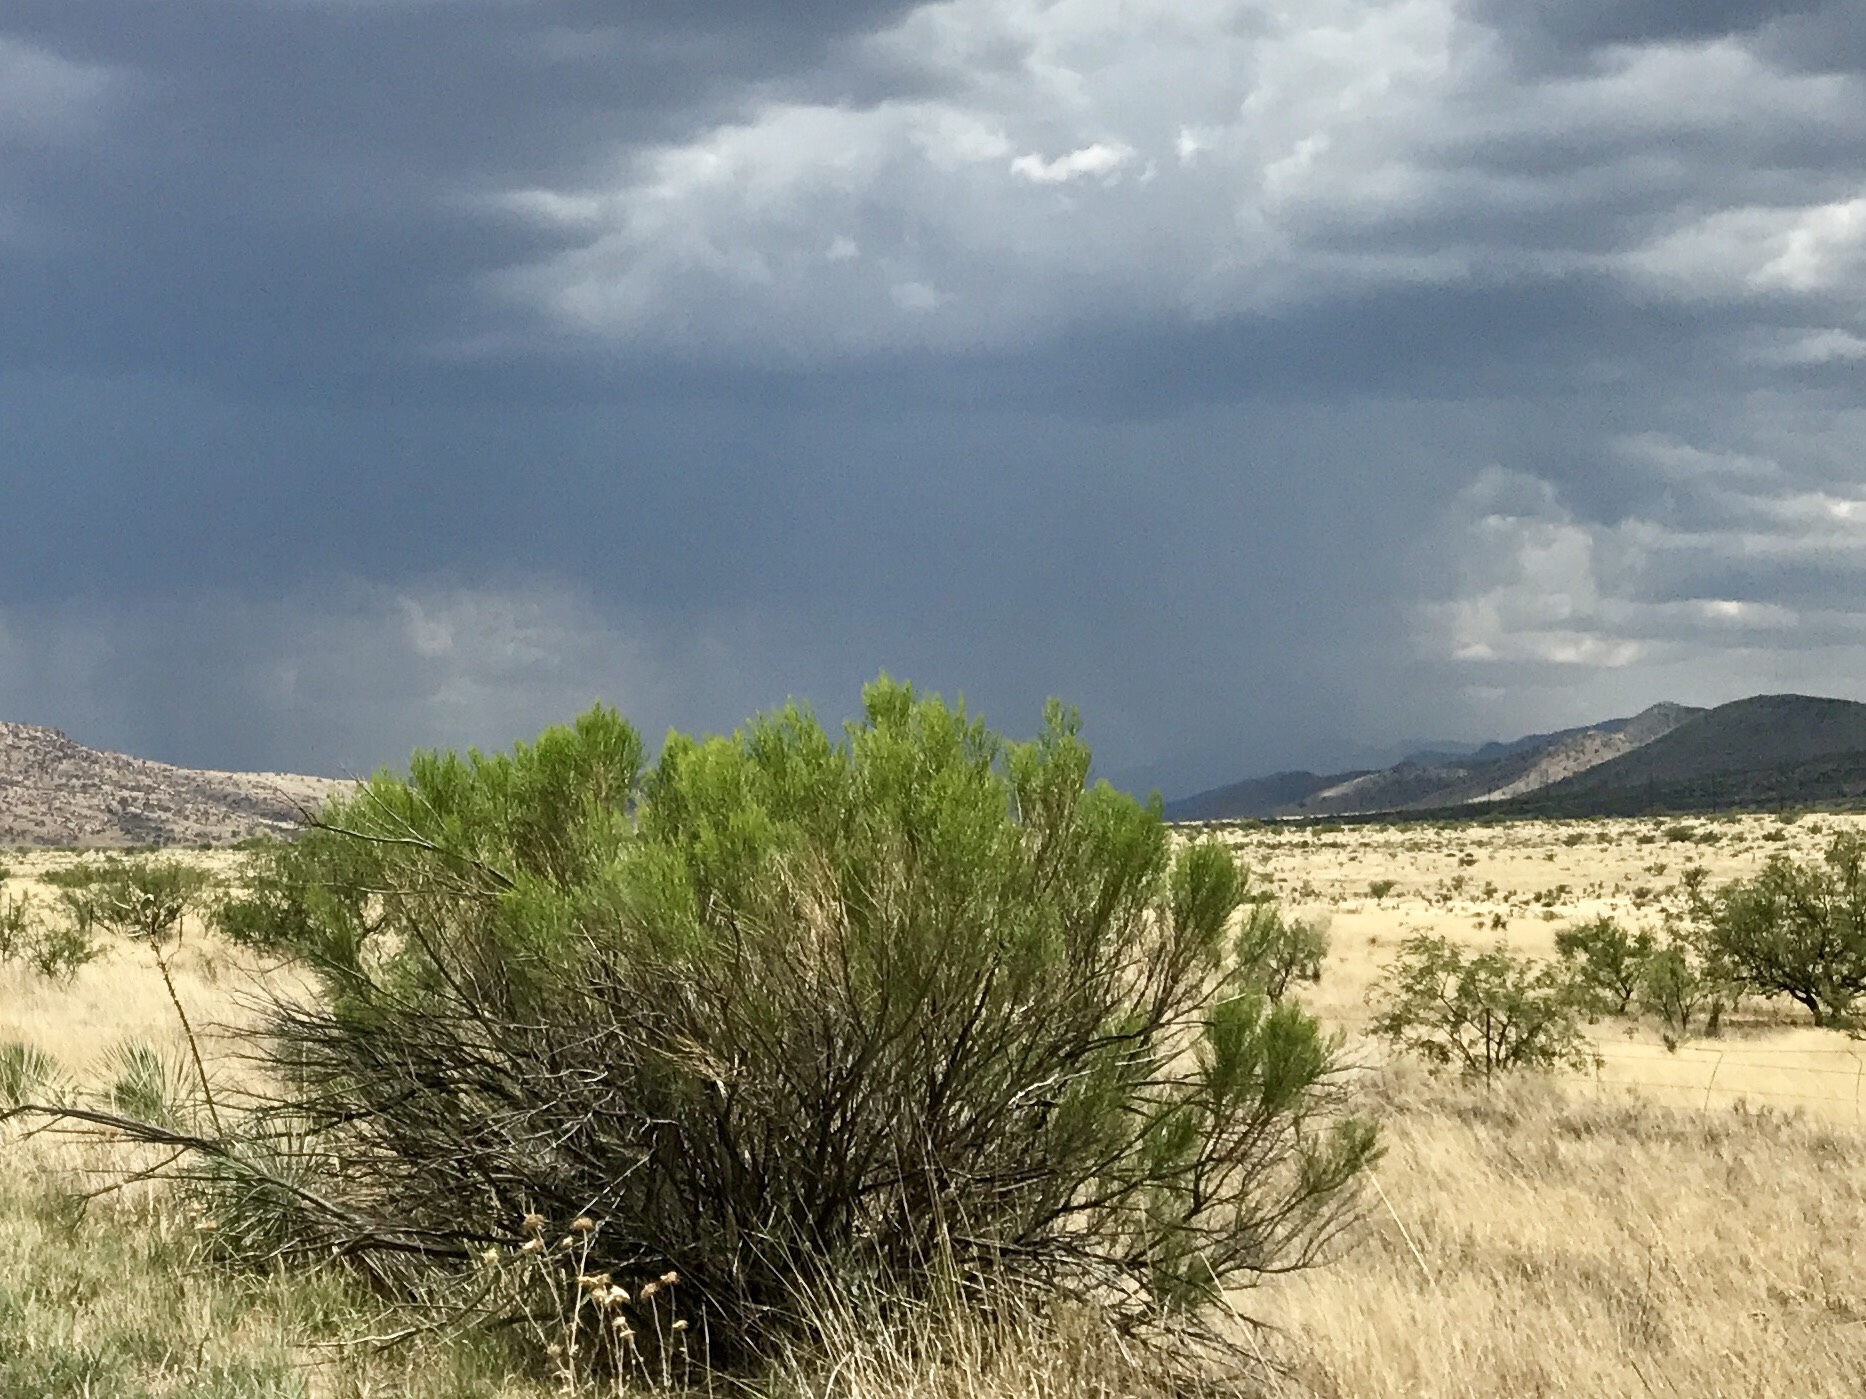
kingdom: Plantae
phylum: Tracheophyta
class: Magnoliopsida
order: Asterales
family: Asteraceae
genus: Baccharis
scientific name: Baccharis sarothroides
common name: Desert-broom
